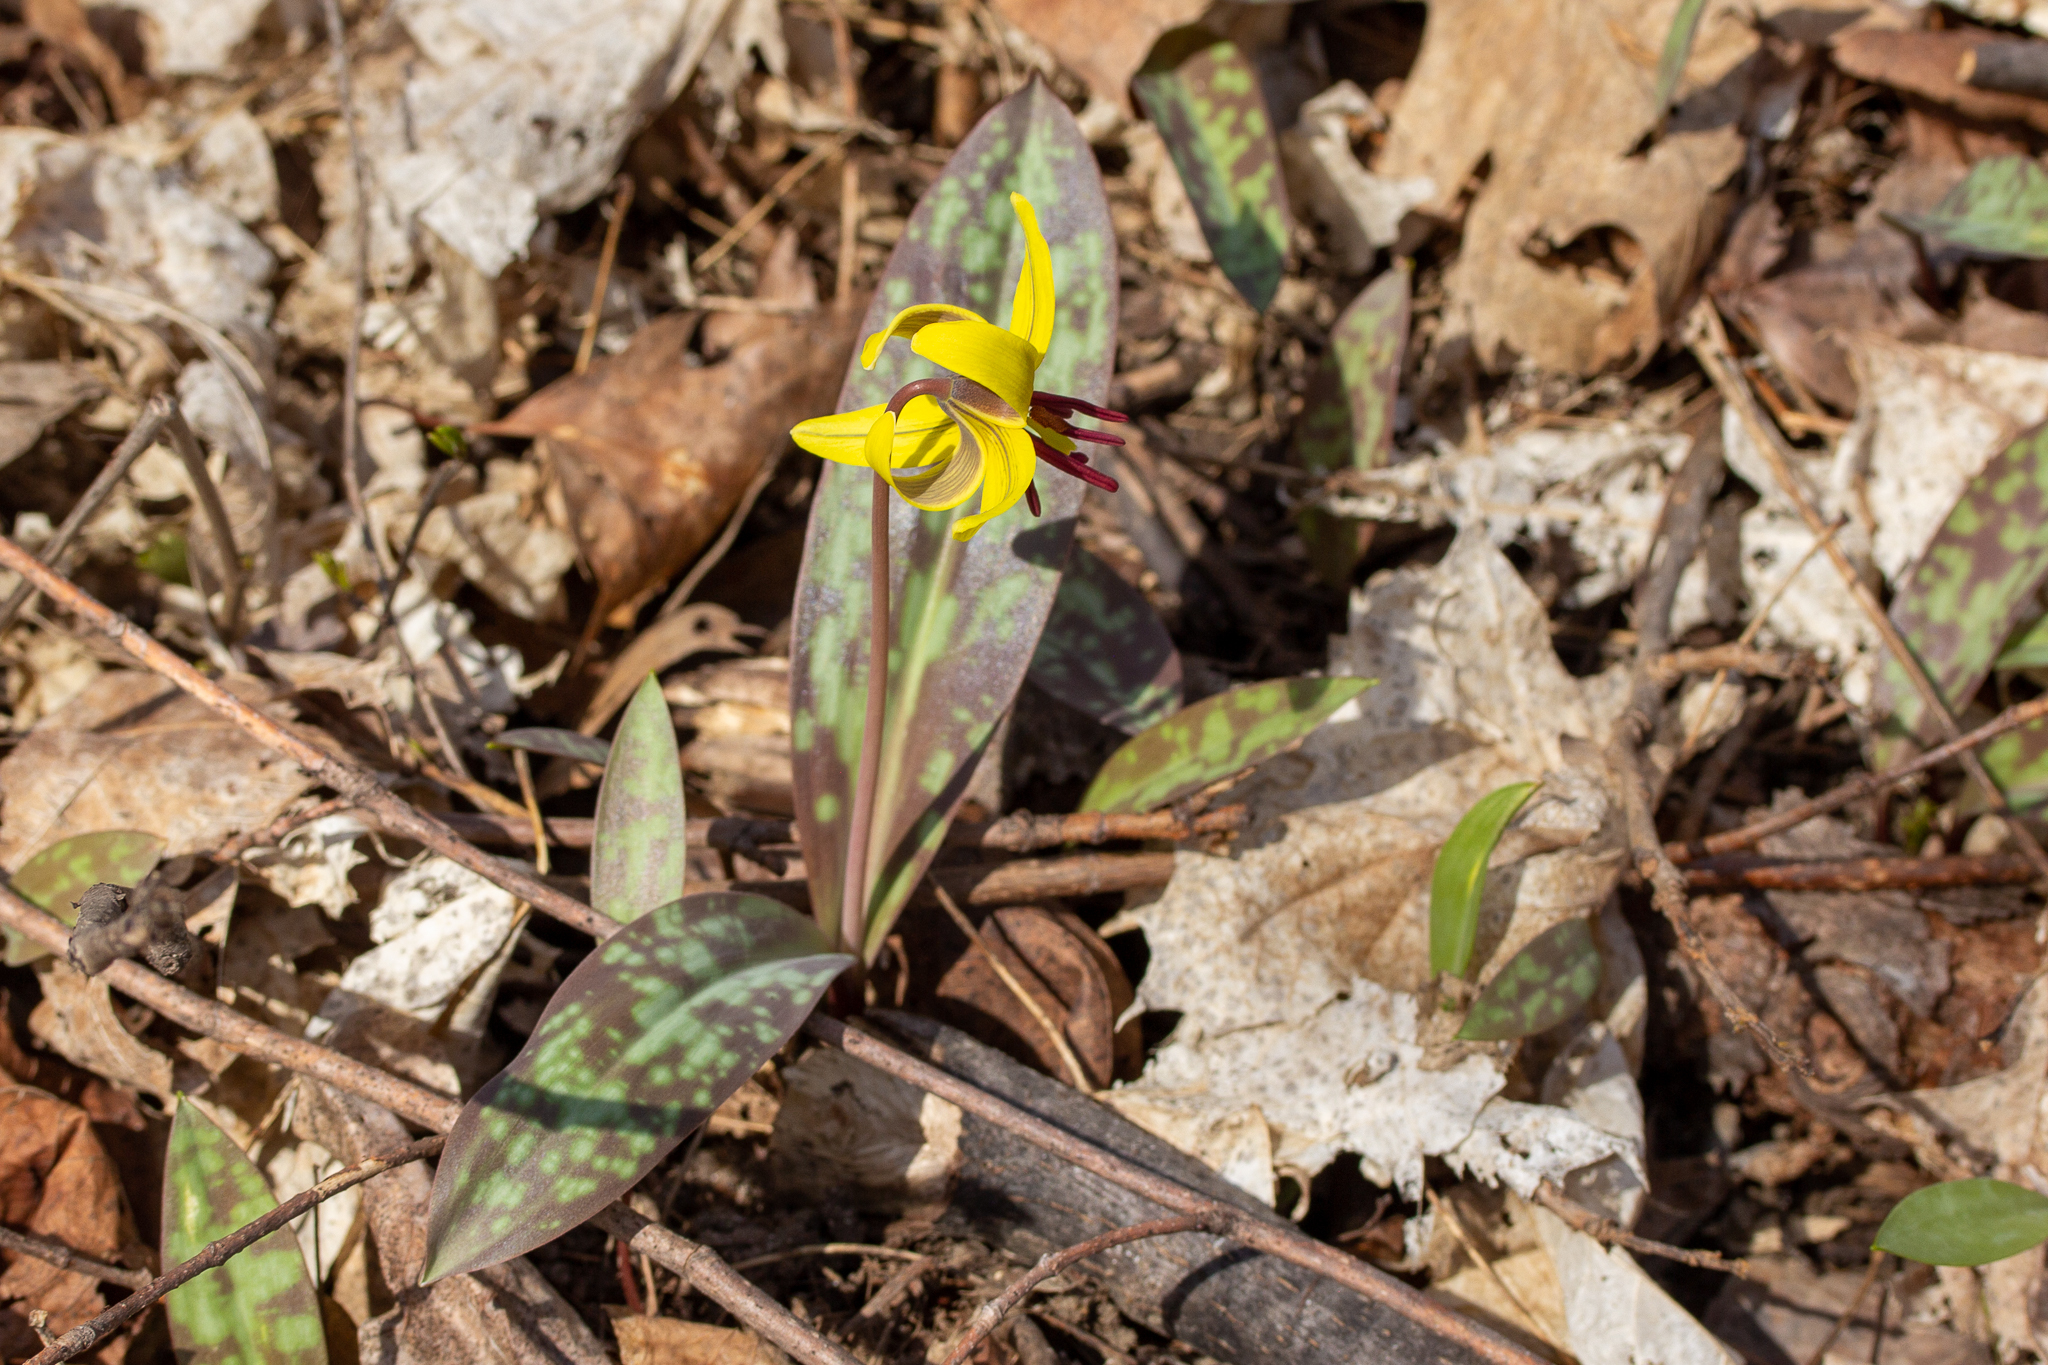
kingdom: Plantae
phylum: Tracheophyta
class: Liliopsida
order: Liliales
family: Liliaceae
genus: Erythronium
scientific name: Erythronium americanum
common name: Yellow adder's-tongue
